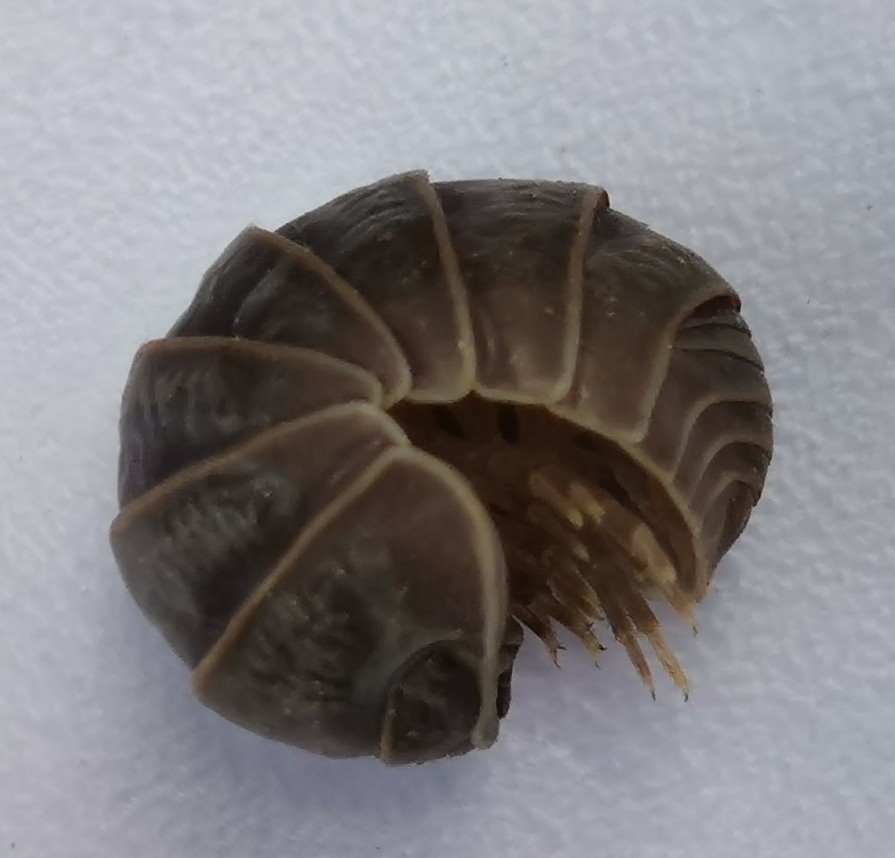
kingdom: Animalia
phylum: Arthropoda
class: Malacostraca
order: Isopoda
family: Armadillidae
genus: Armadillo
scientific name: Armadillo officinalis
